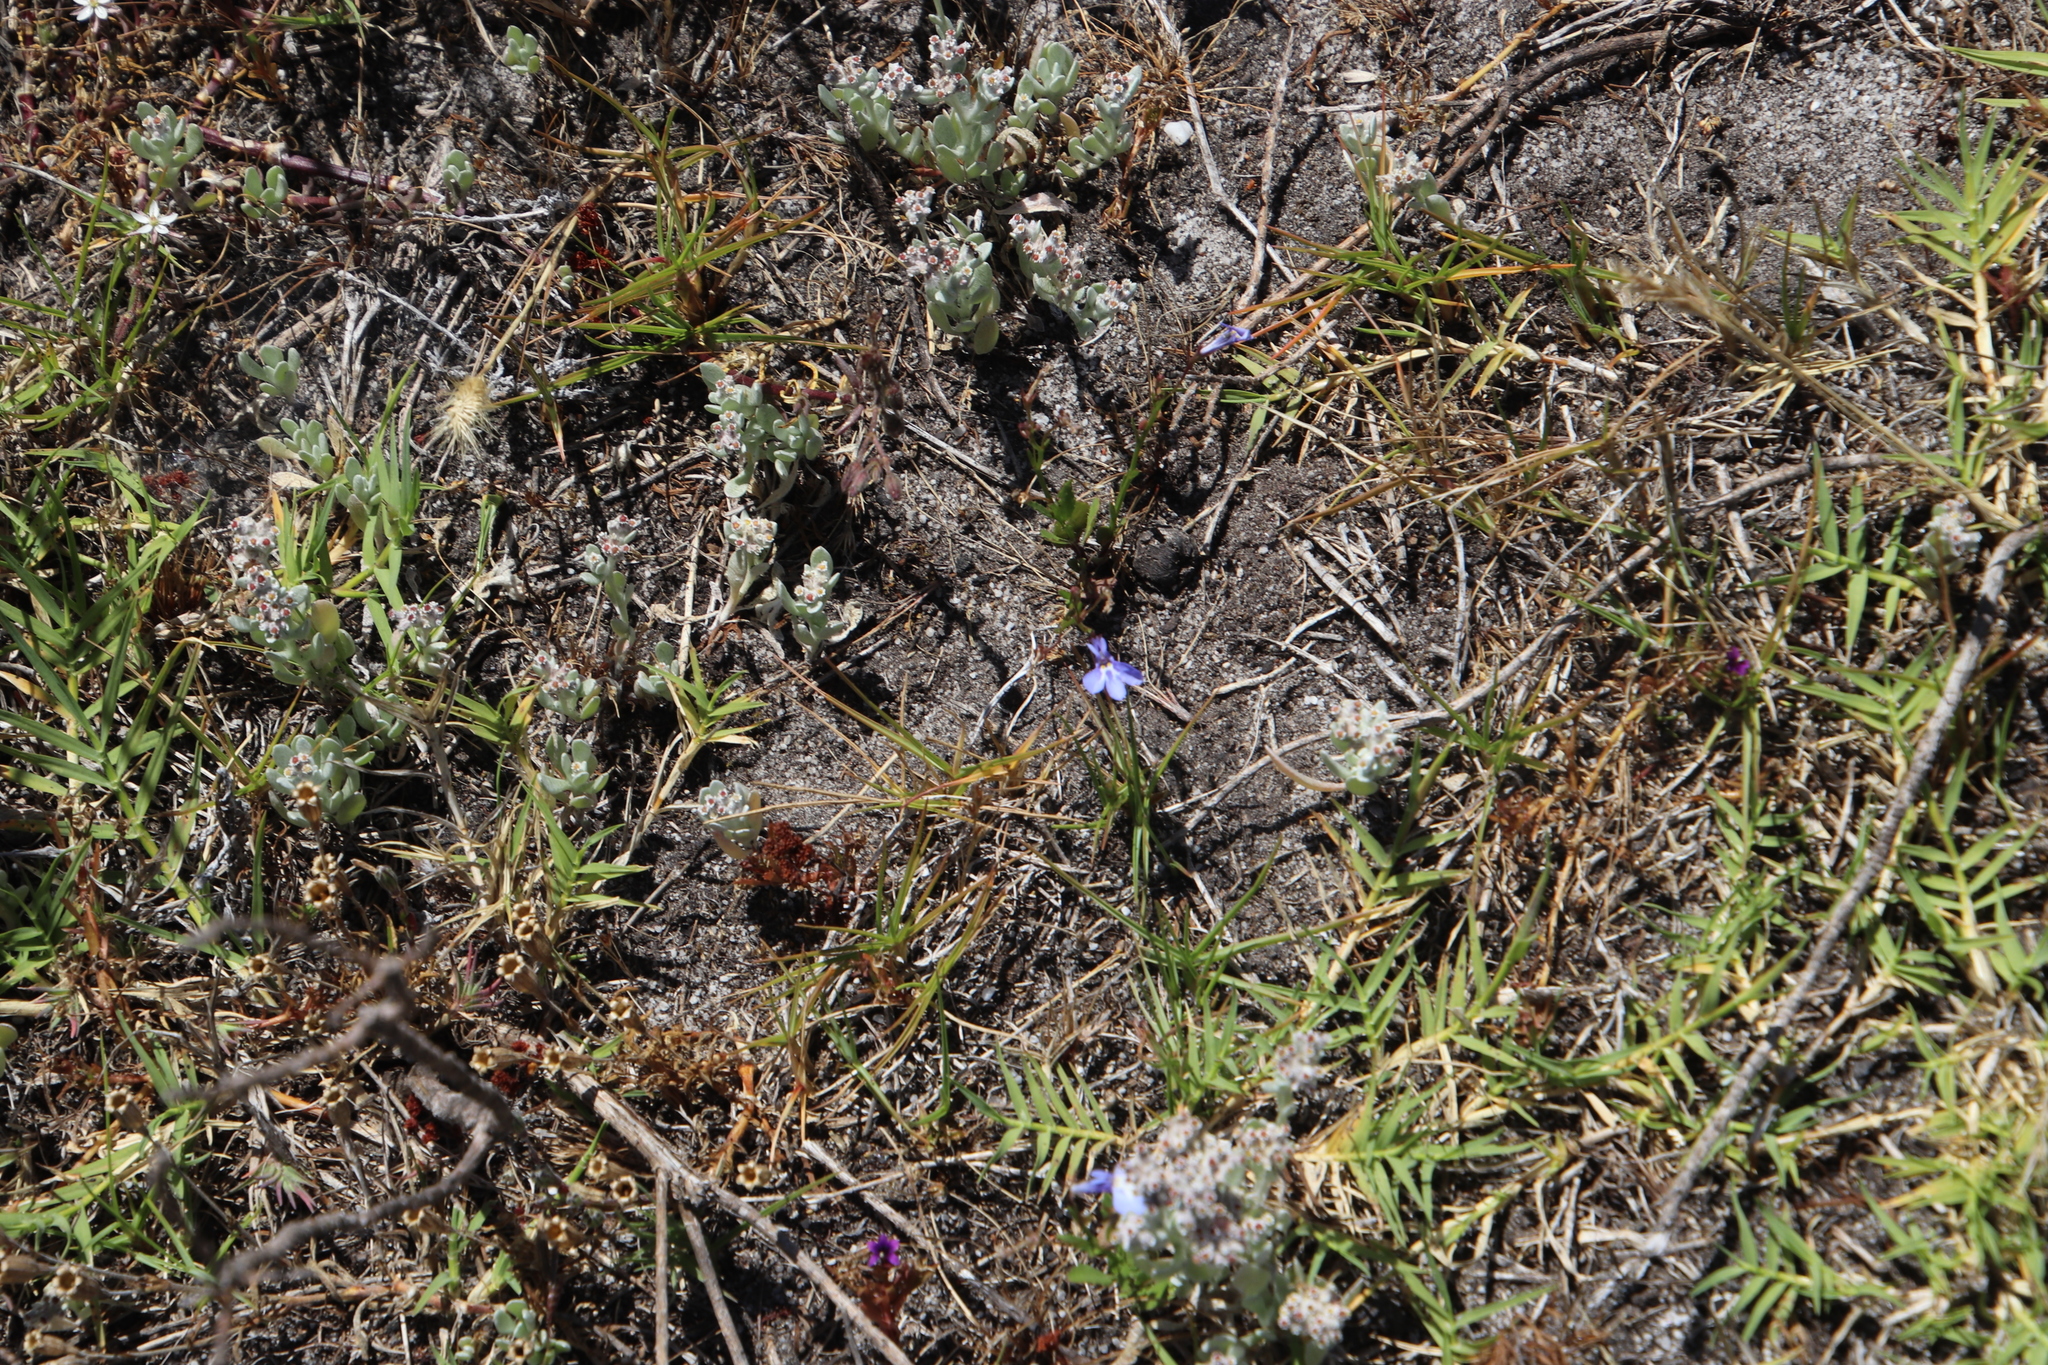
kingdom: Plantae
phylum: Tracheophyta
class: Magnoliopsida
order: Asterales
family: Campanulaceae
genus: Lobelia
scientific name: Lobelia erinus
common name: Edging lobelia
